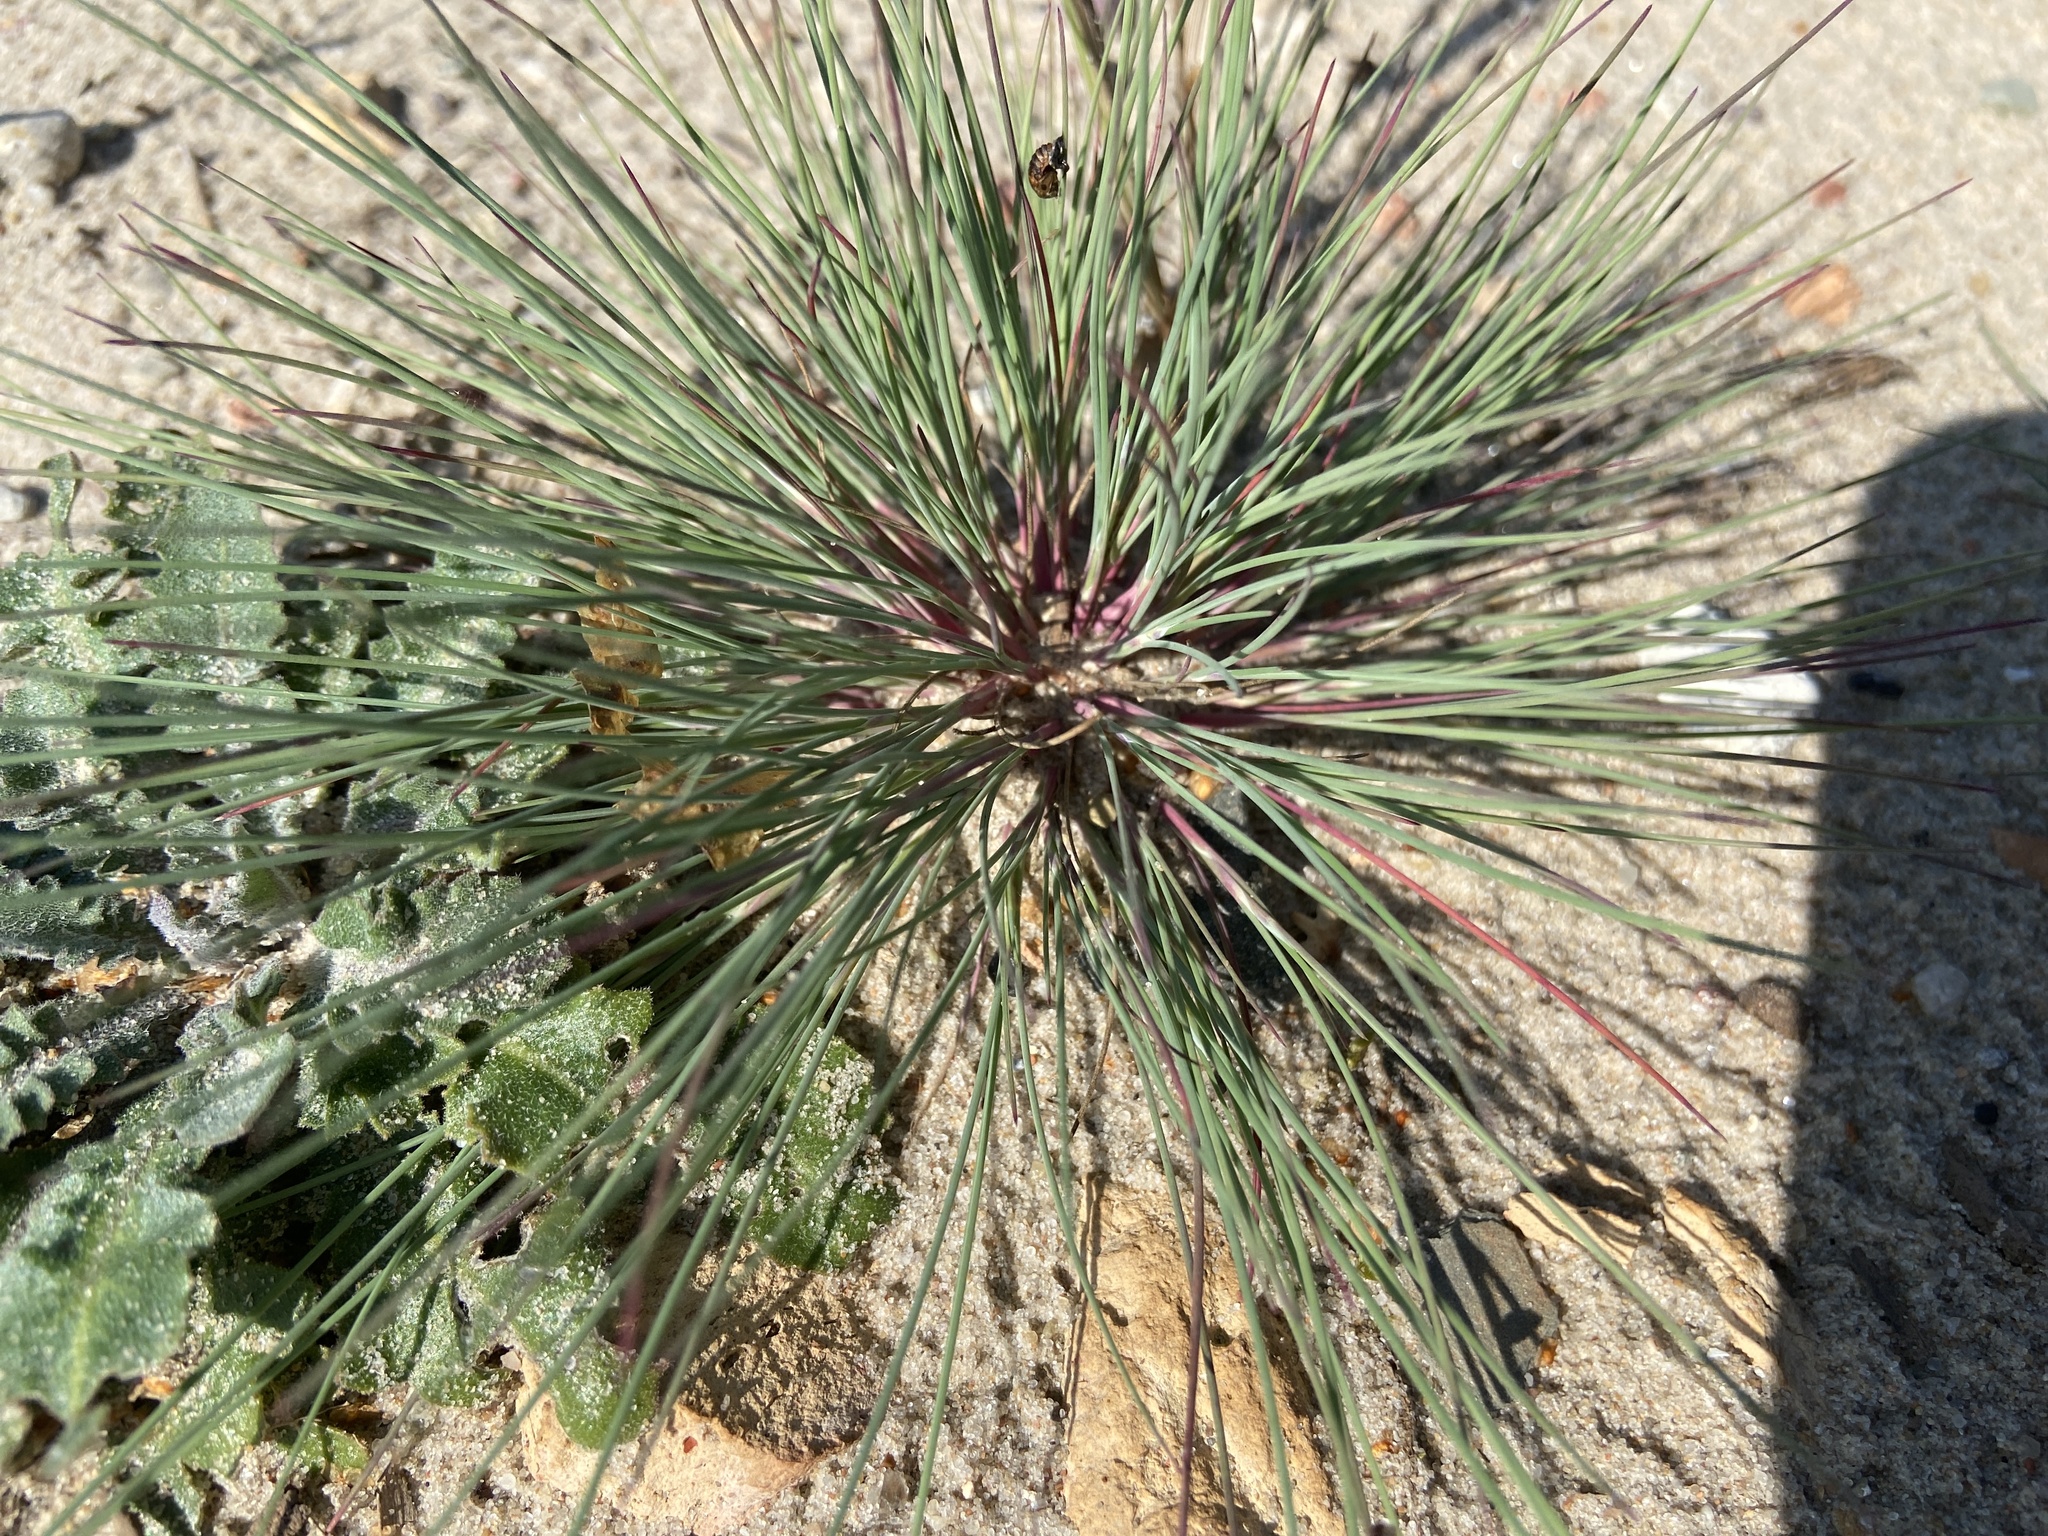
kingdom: Plantae
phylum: Tracheophyta
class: Liliopsida
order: Poales
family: Poaceae
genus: Corynephorus
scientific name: Corynephorus canescens
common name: Grey hair-grass
